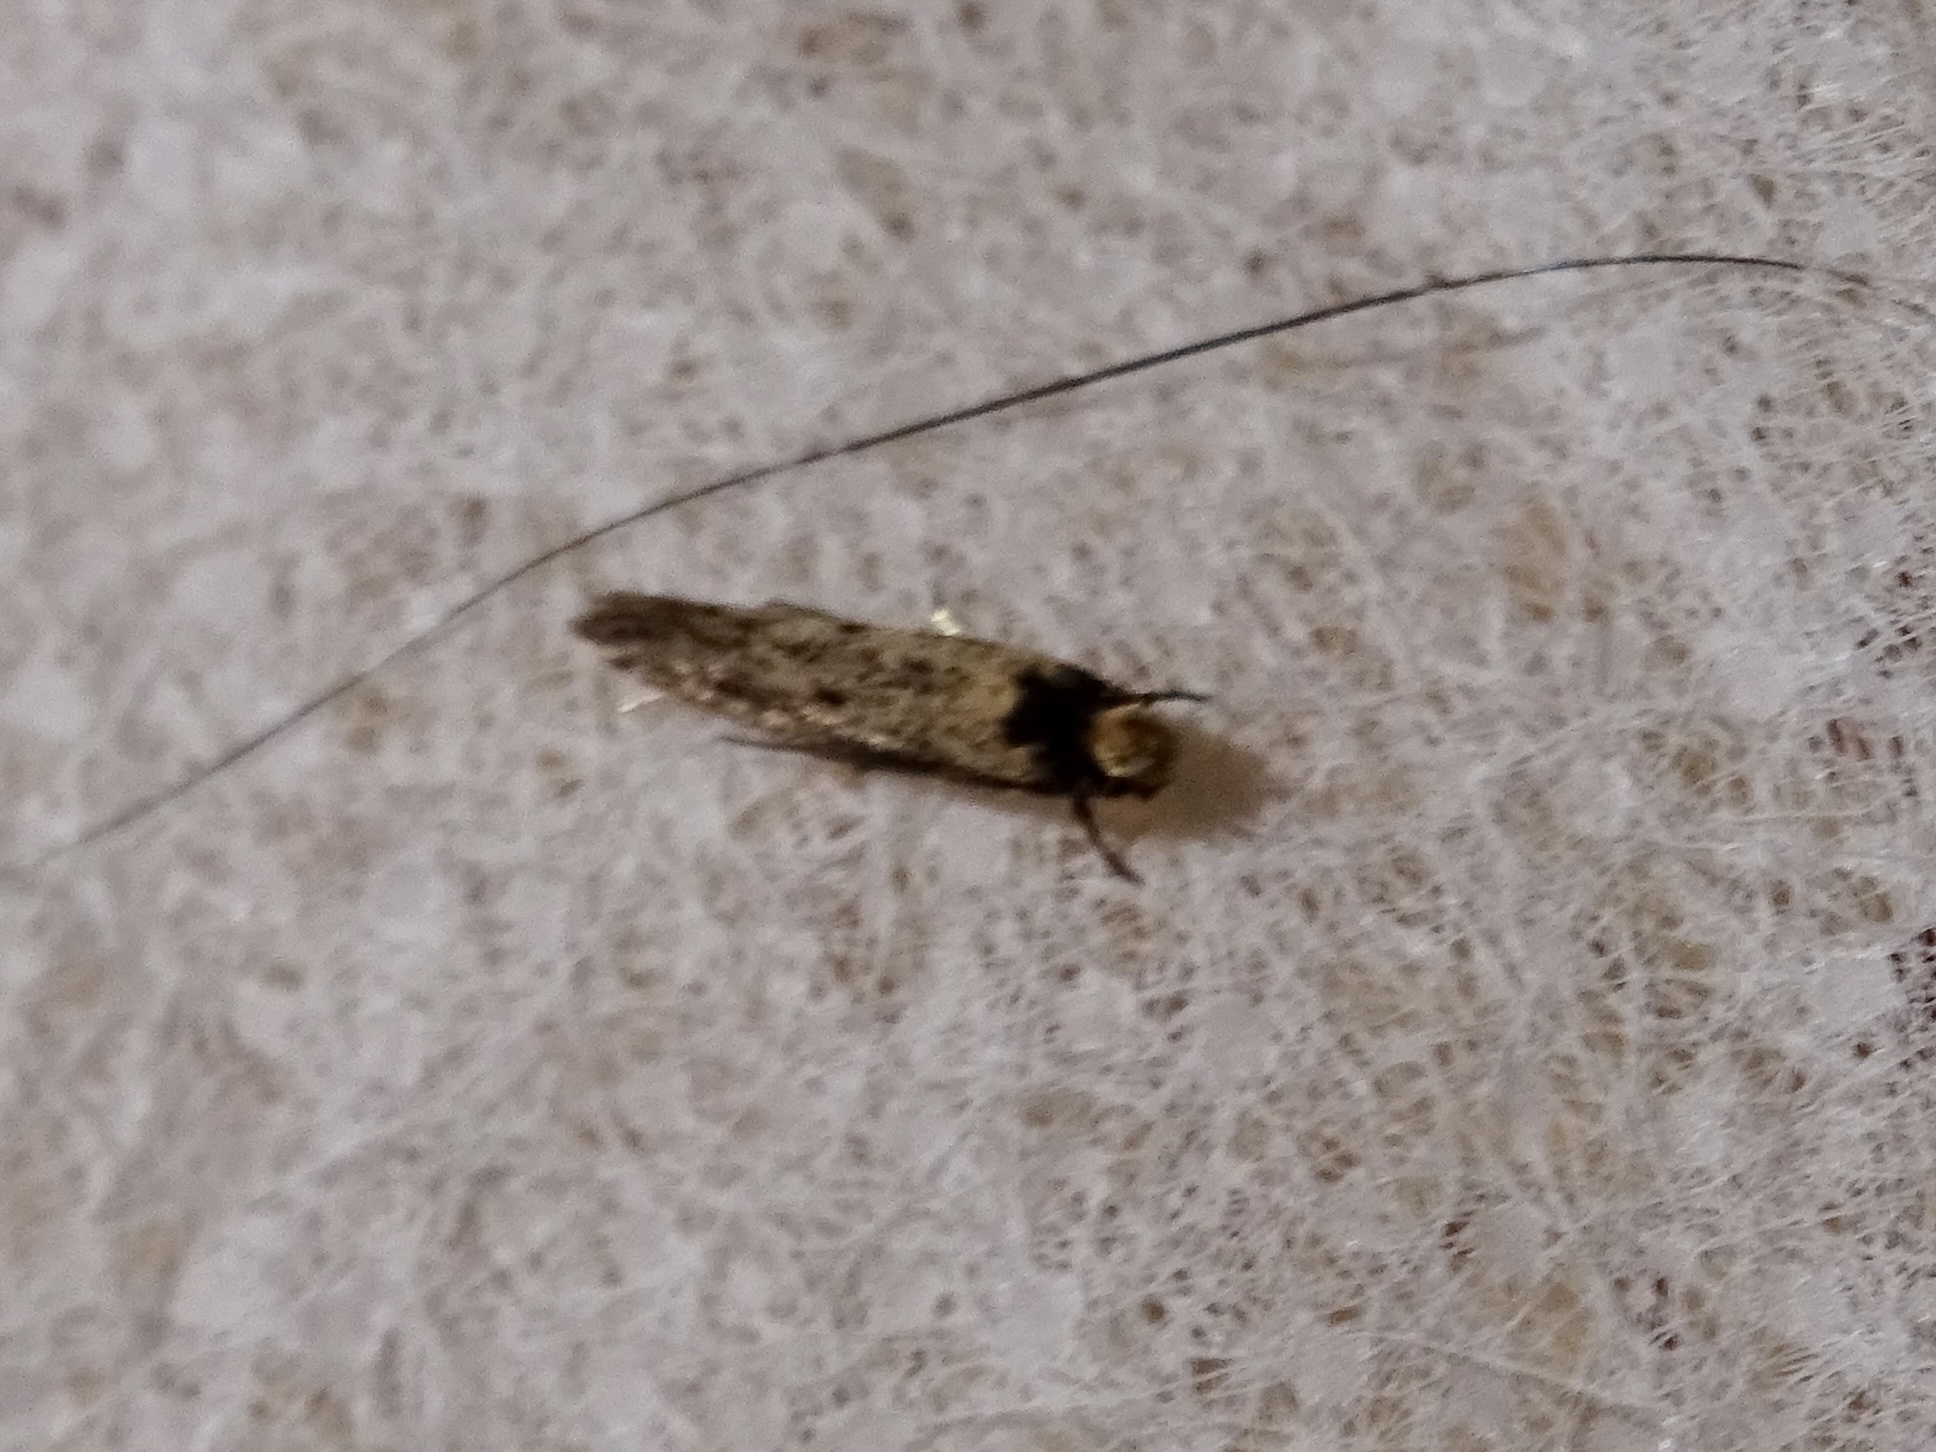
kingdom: Animalia
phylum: Arthropoda
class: Insecta
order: Lepidoptera
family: Tineidae
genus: Tinea
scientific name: Tinea apicimaculella
